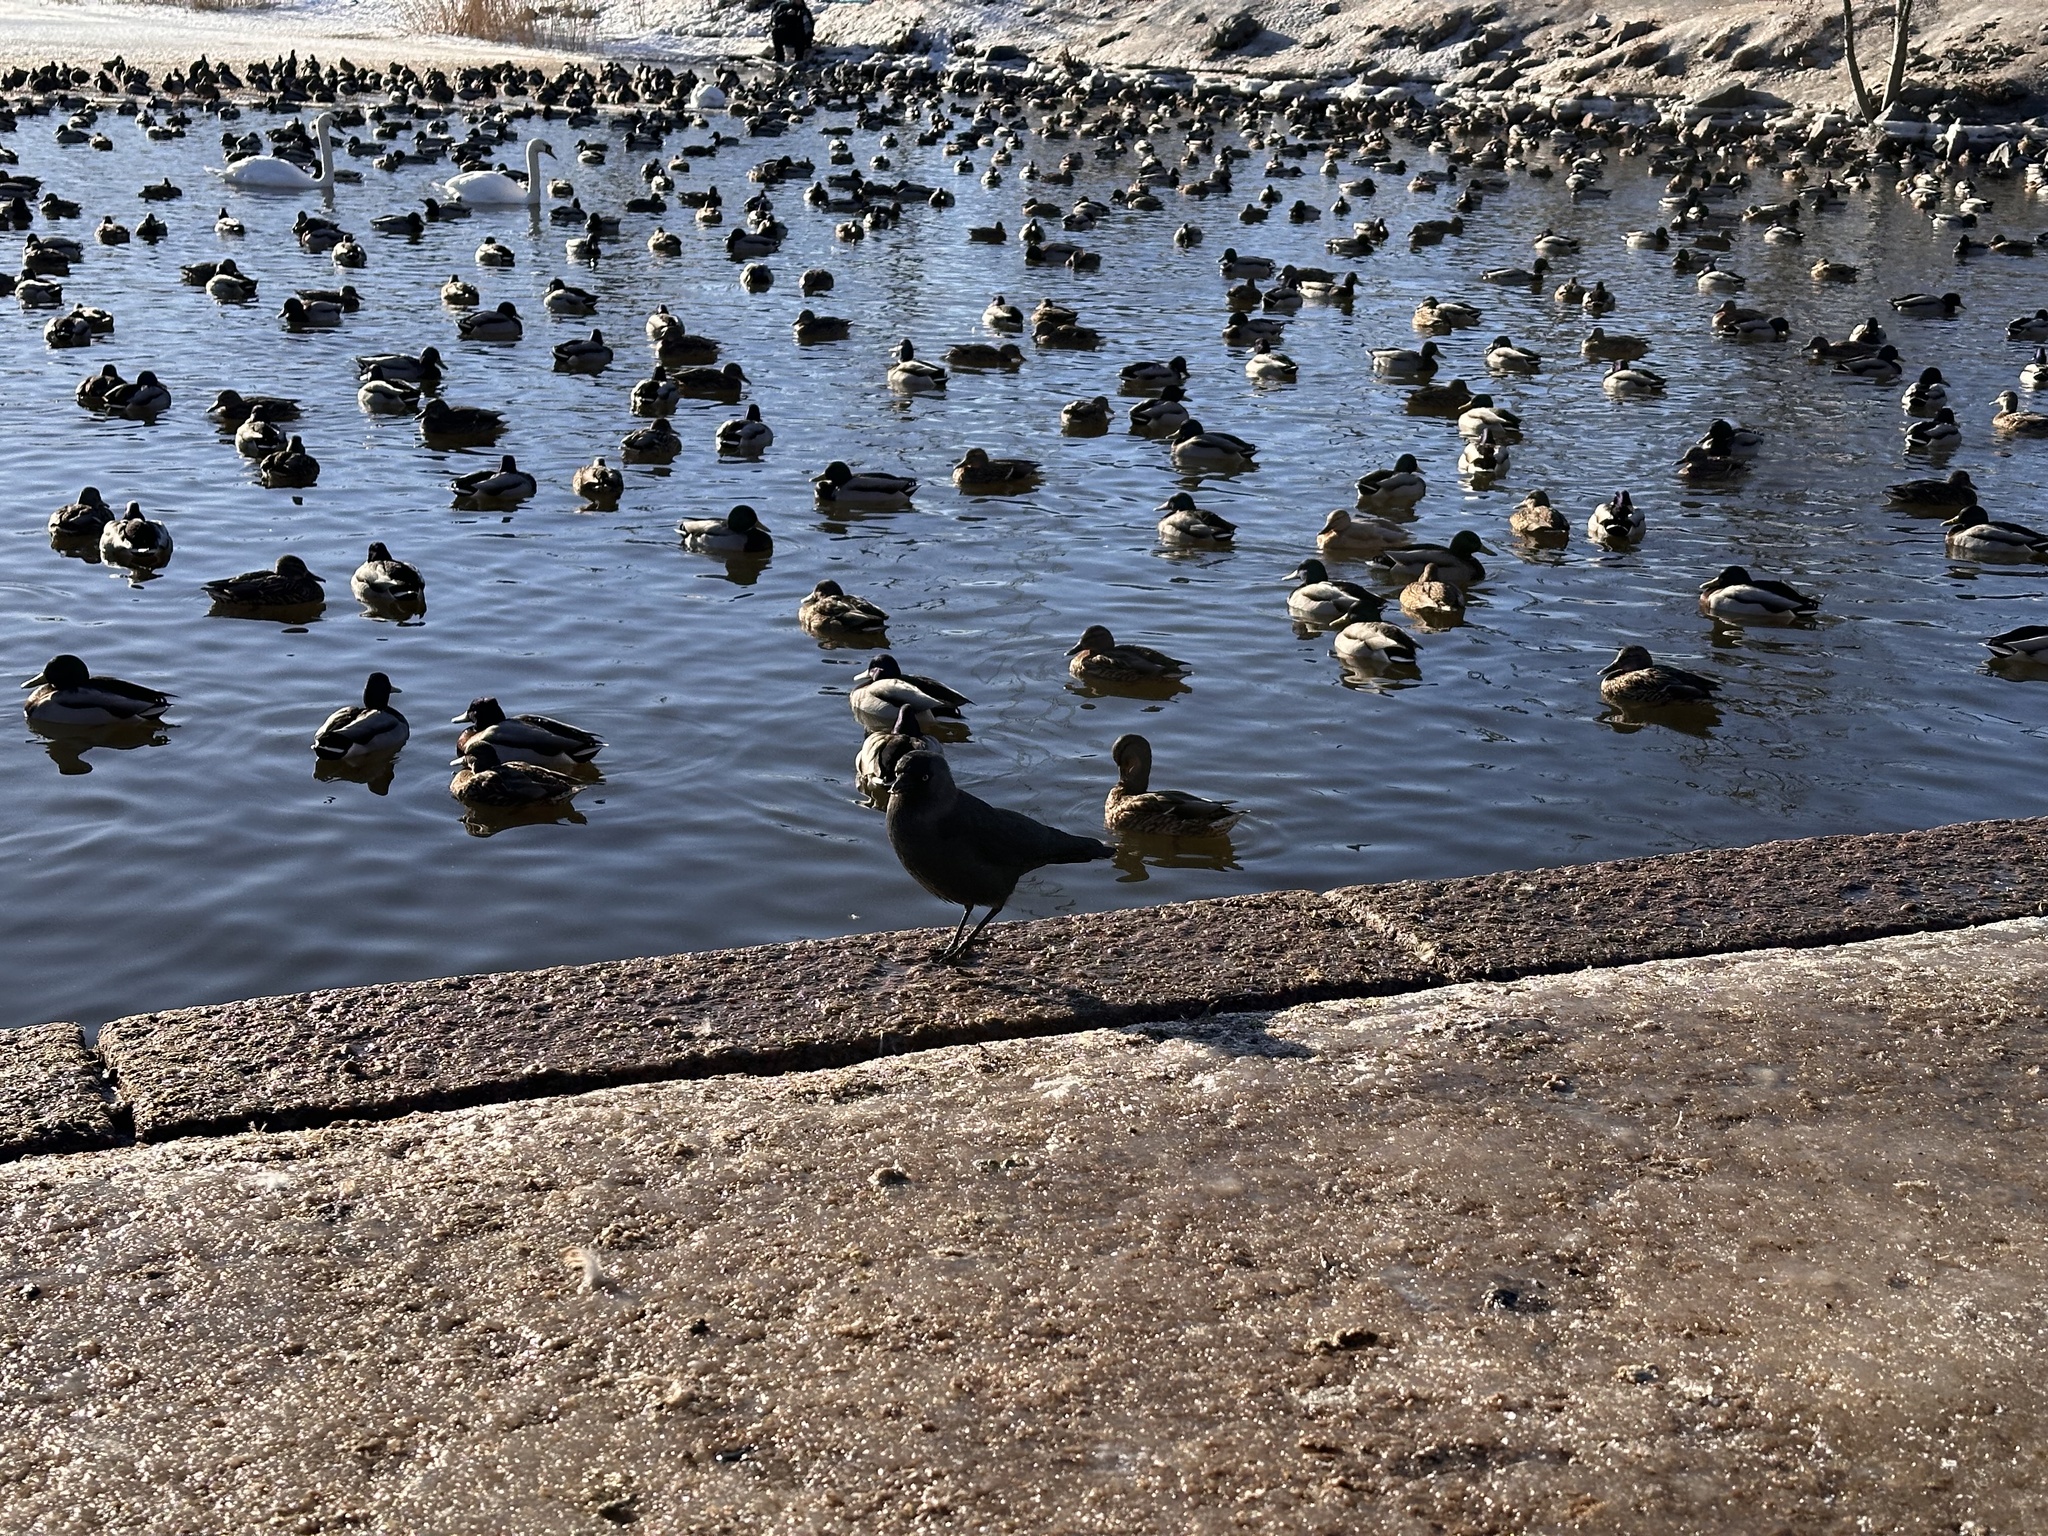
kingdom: Animalia
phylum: Chordata
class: Aves
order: Passeriformes
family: Corvidae
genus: Coloeus
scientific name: Coloeus monedula
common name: Western jackdaw
